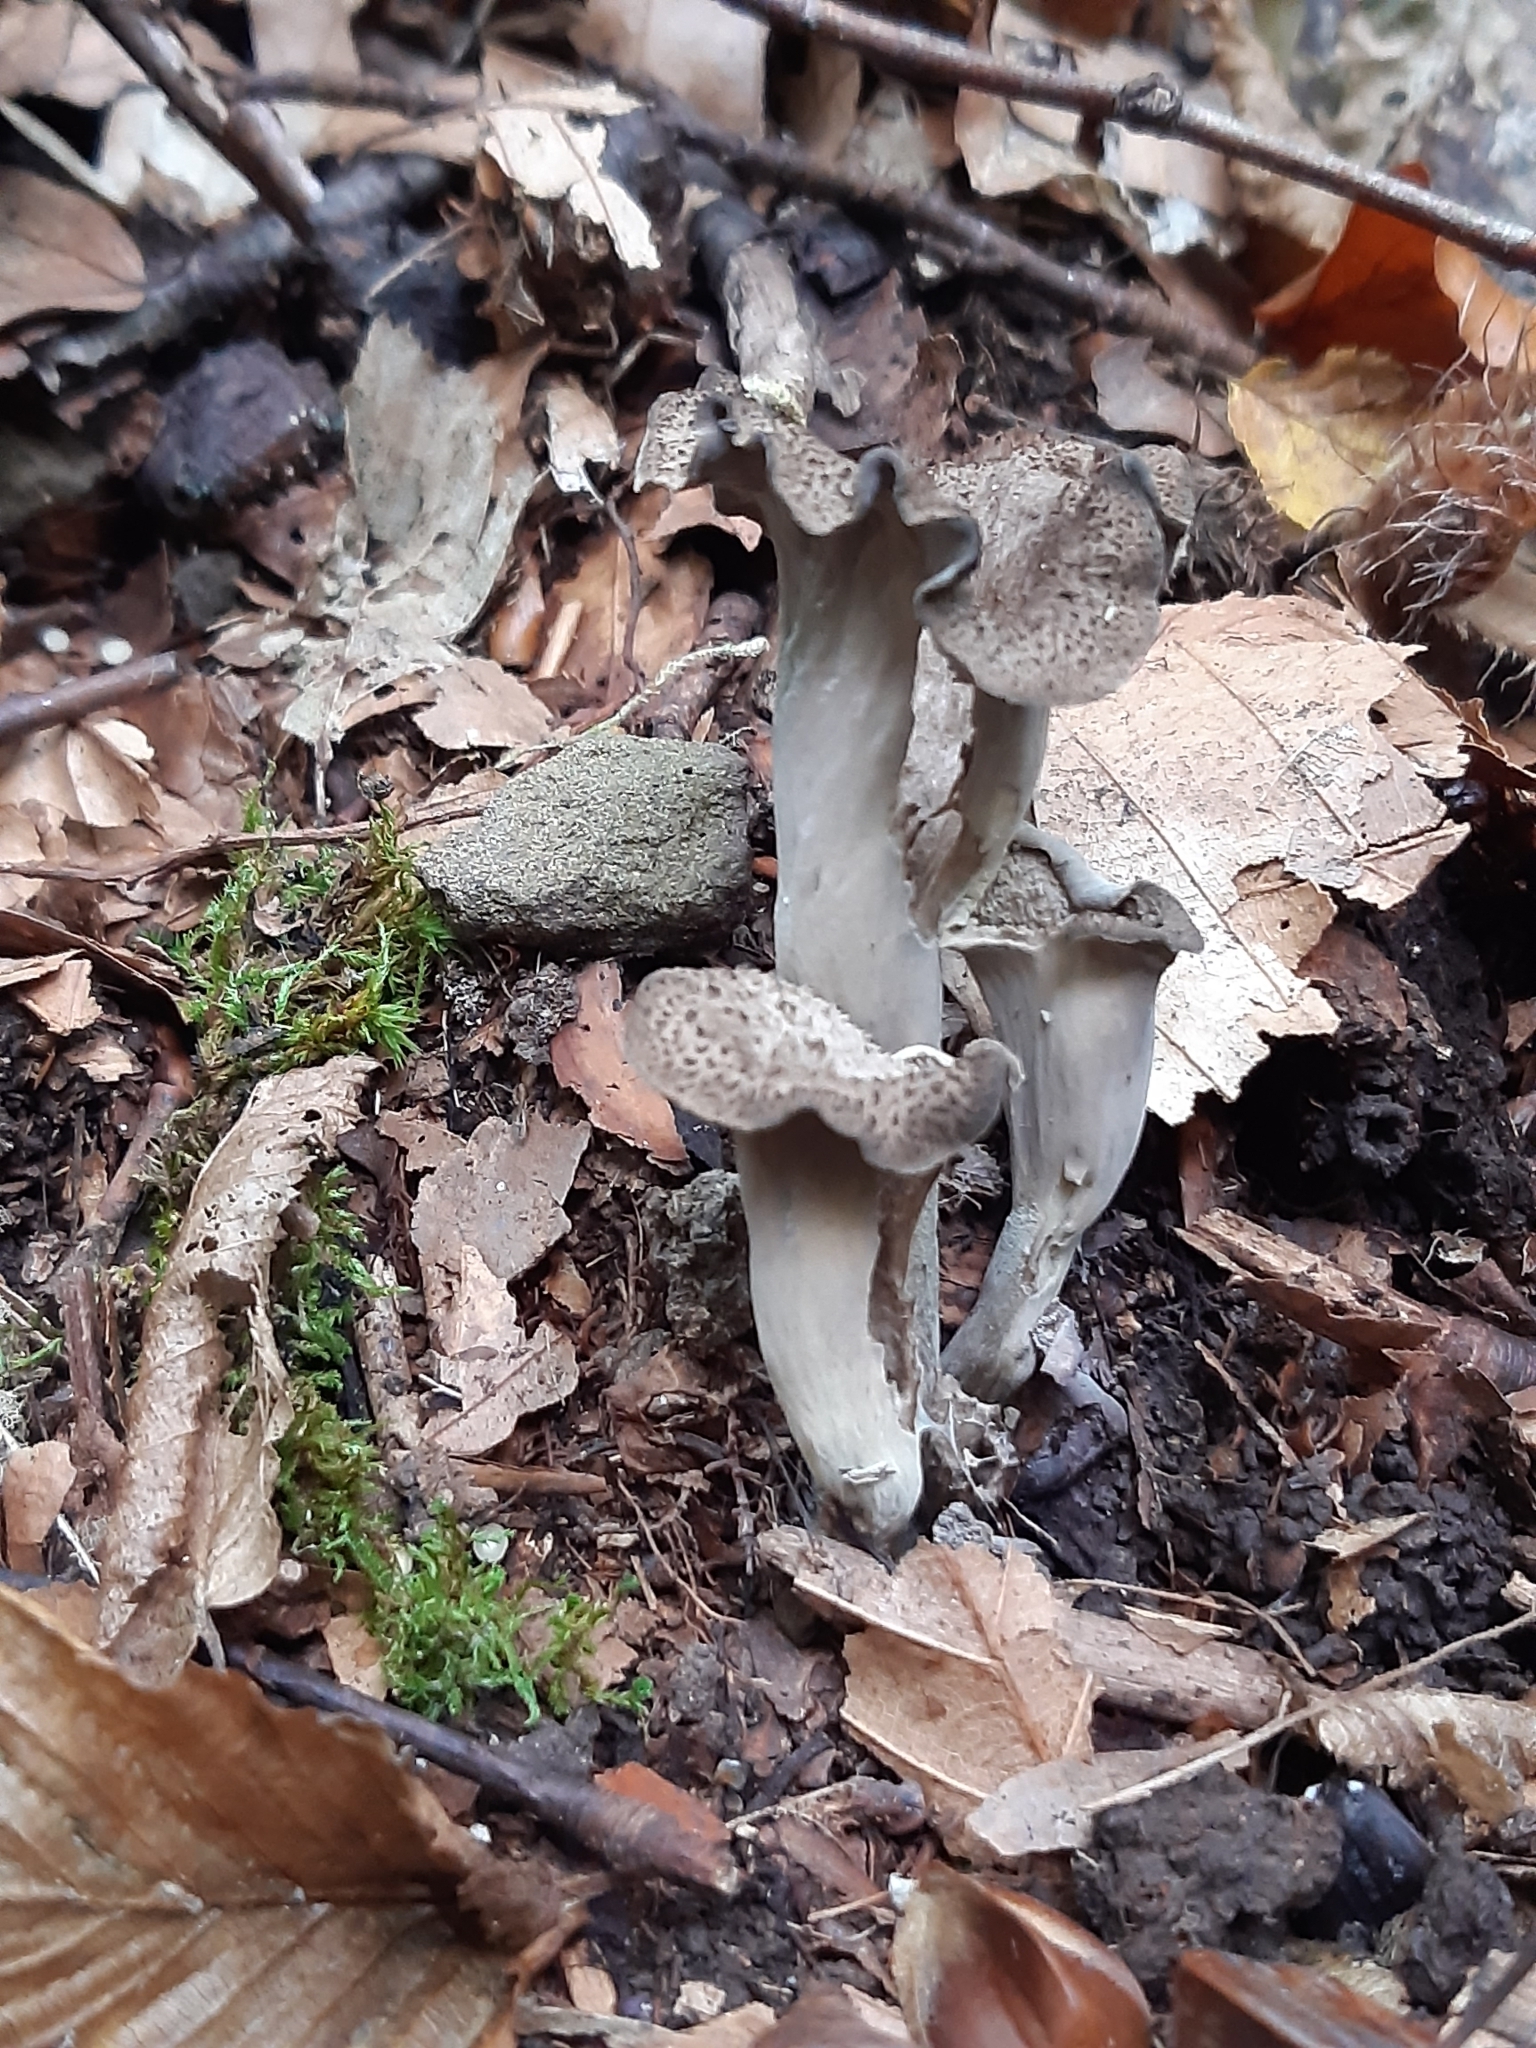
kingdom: Fungi
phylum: Basidiomycota
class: Agaricomycetes
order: Cantharellales
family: Hydnaceae
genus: Craterellus
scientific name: Craterellus cornucopioides
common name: Horn of plenty
